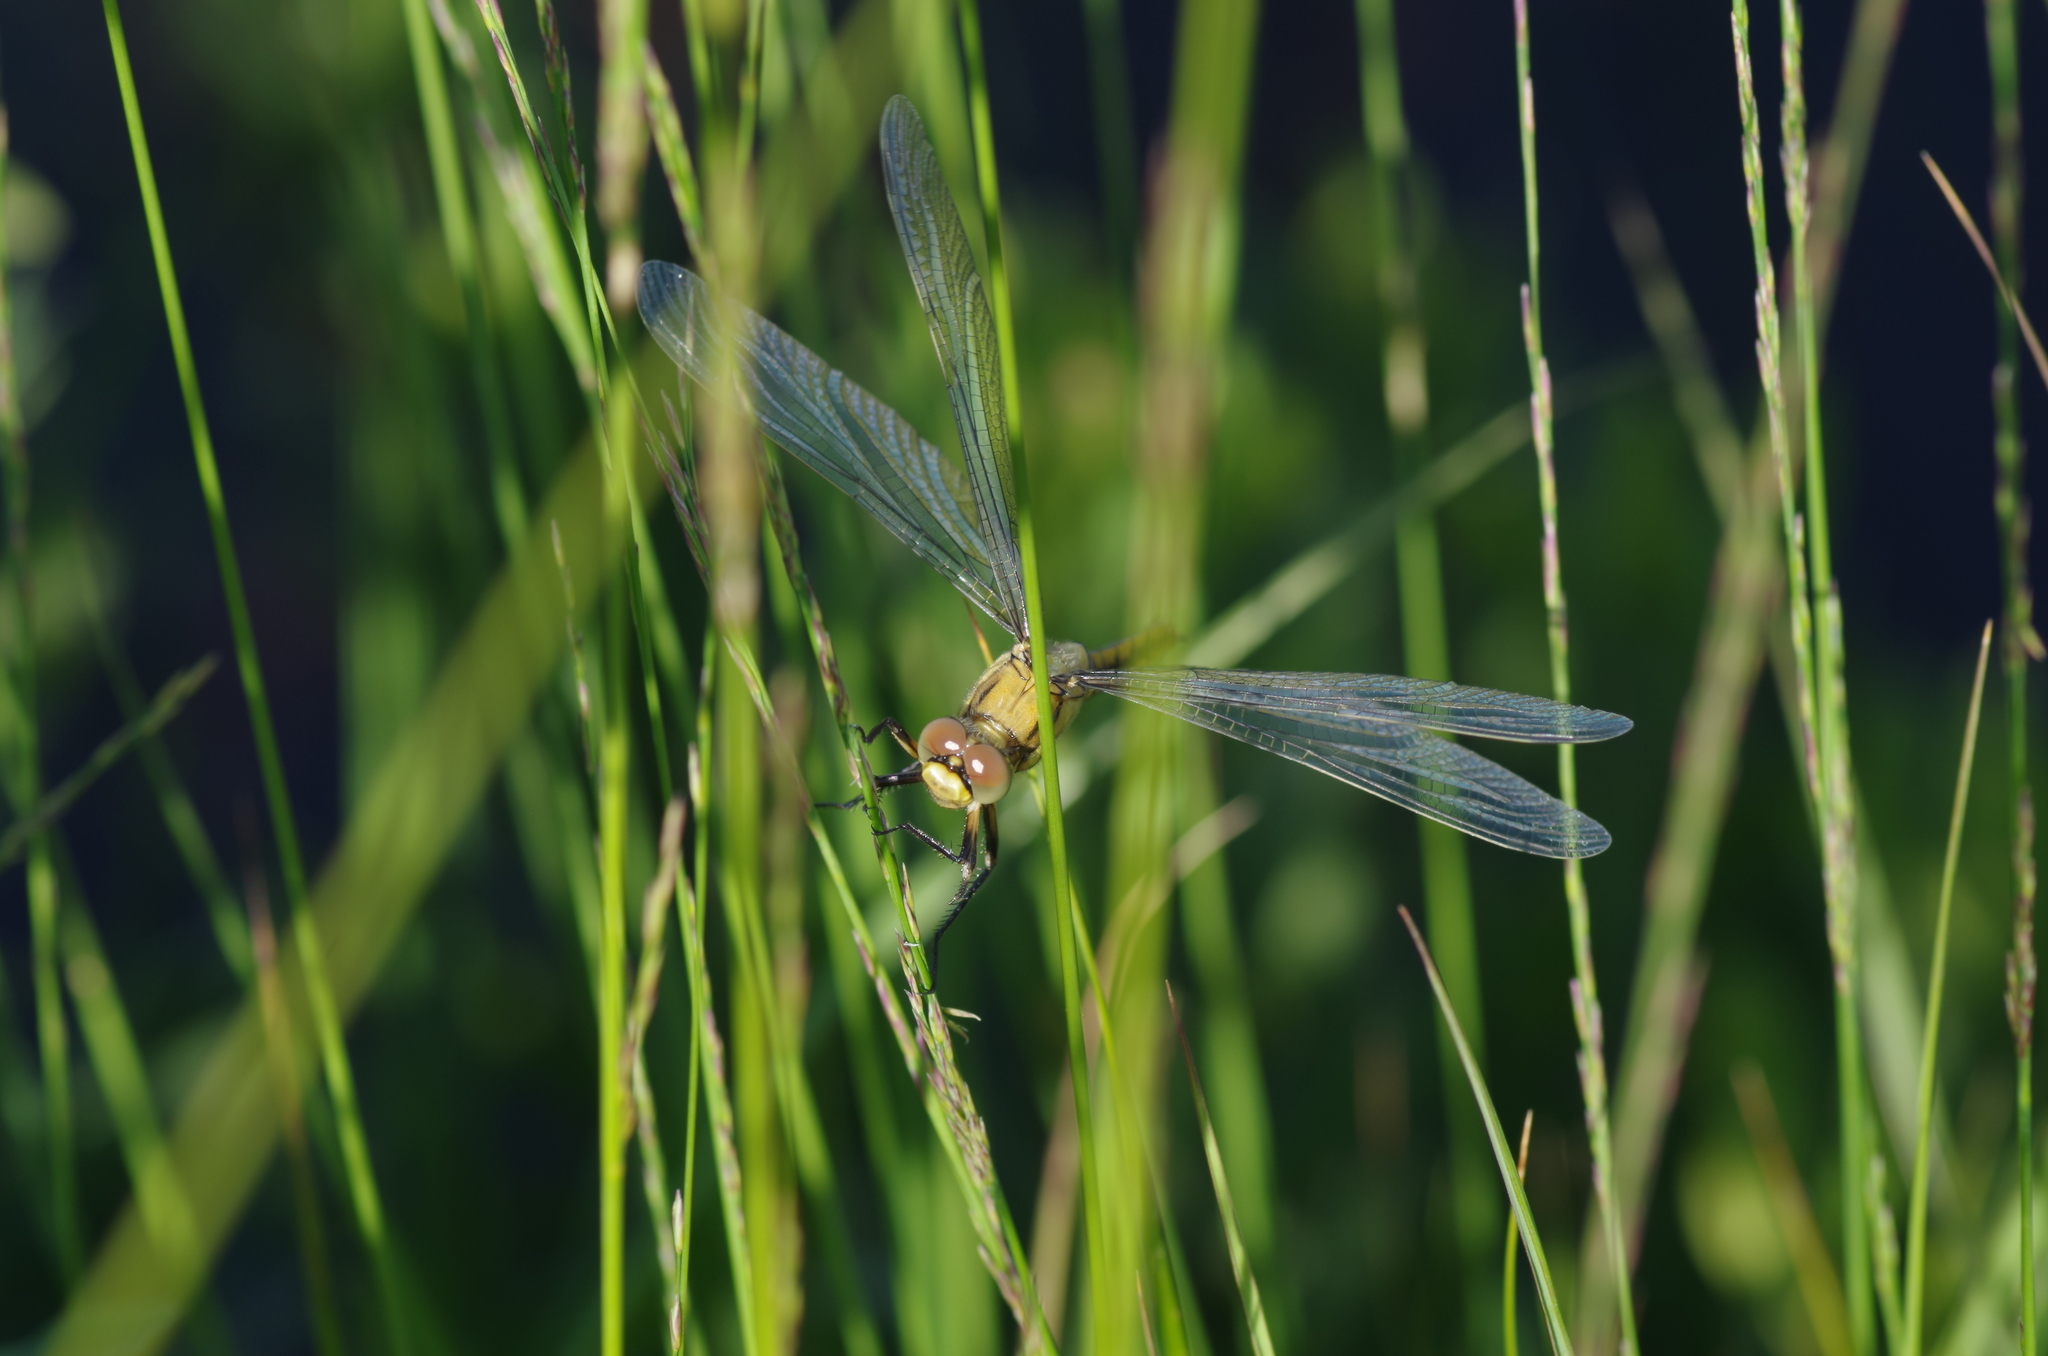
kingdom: Animalia
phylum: Arthropoda
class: Insecta
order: Odonata
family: Libellulidae
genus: Orthetrum
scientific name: Orthetrum cancellatum
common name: Black-tailed skimmer
